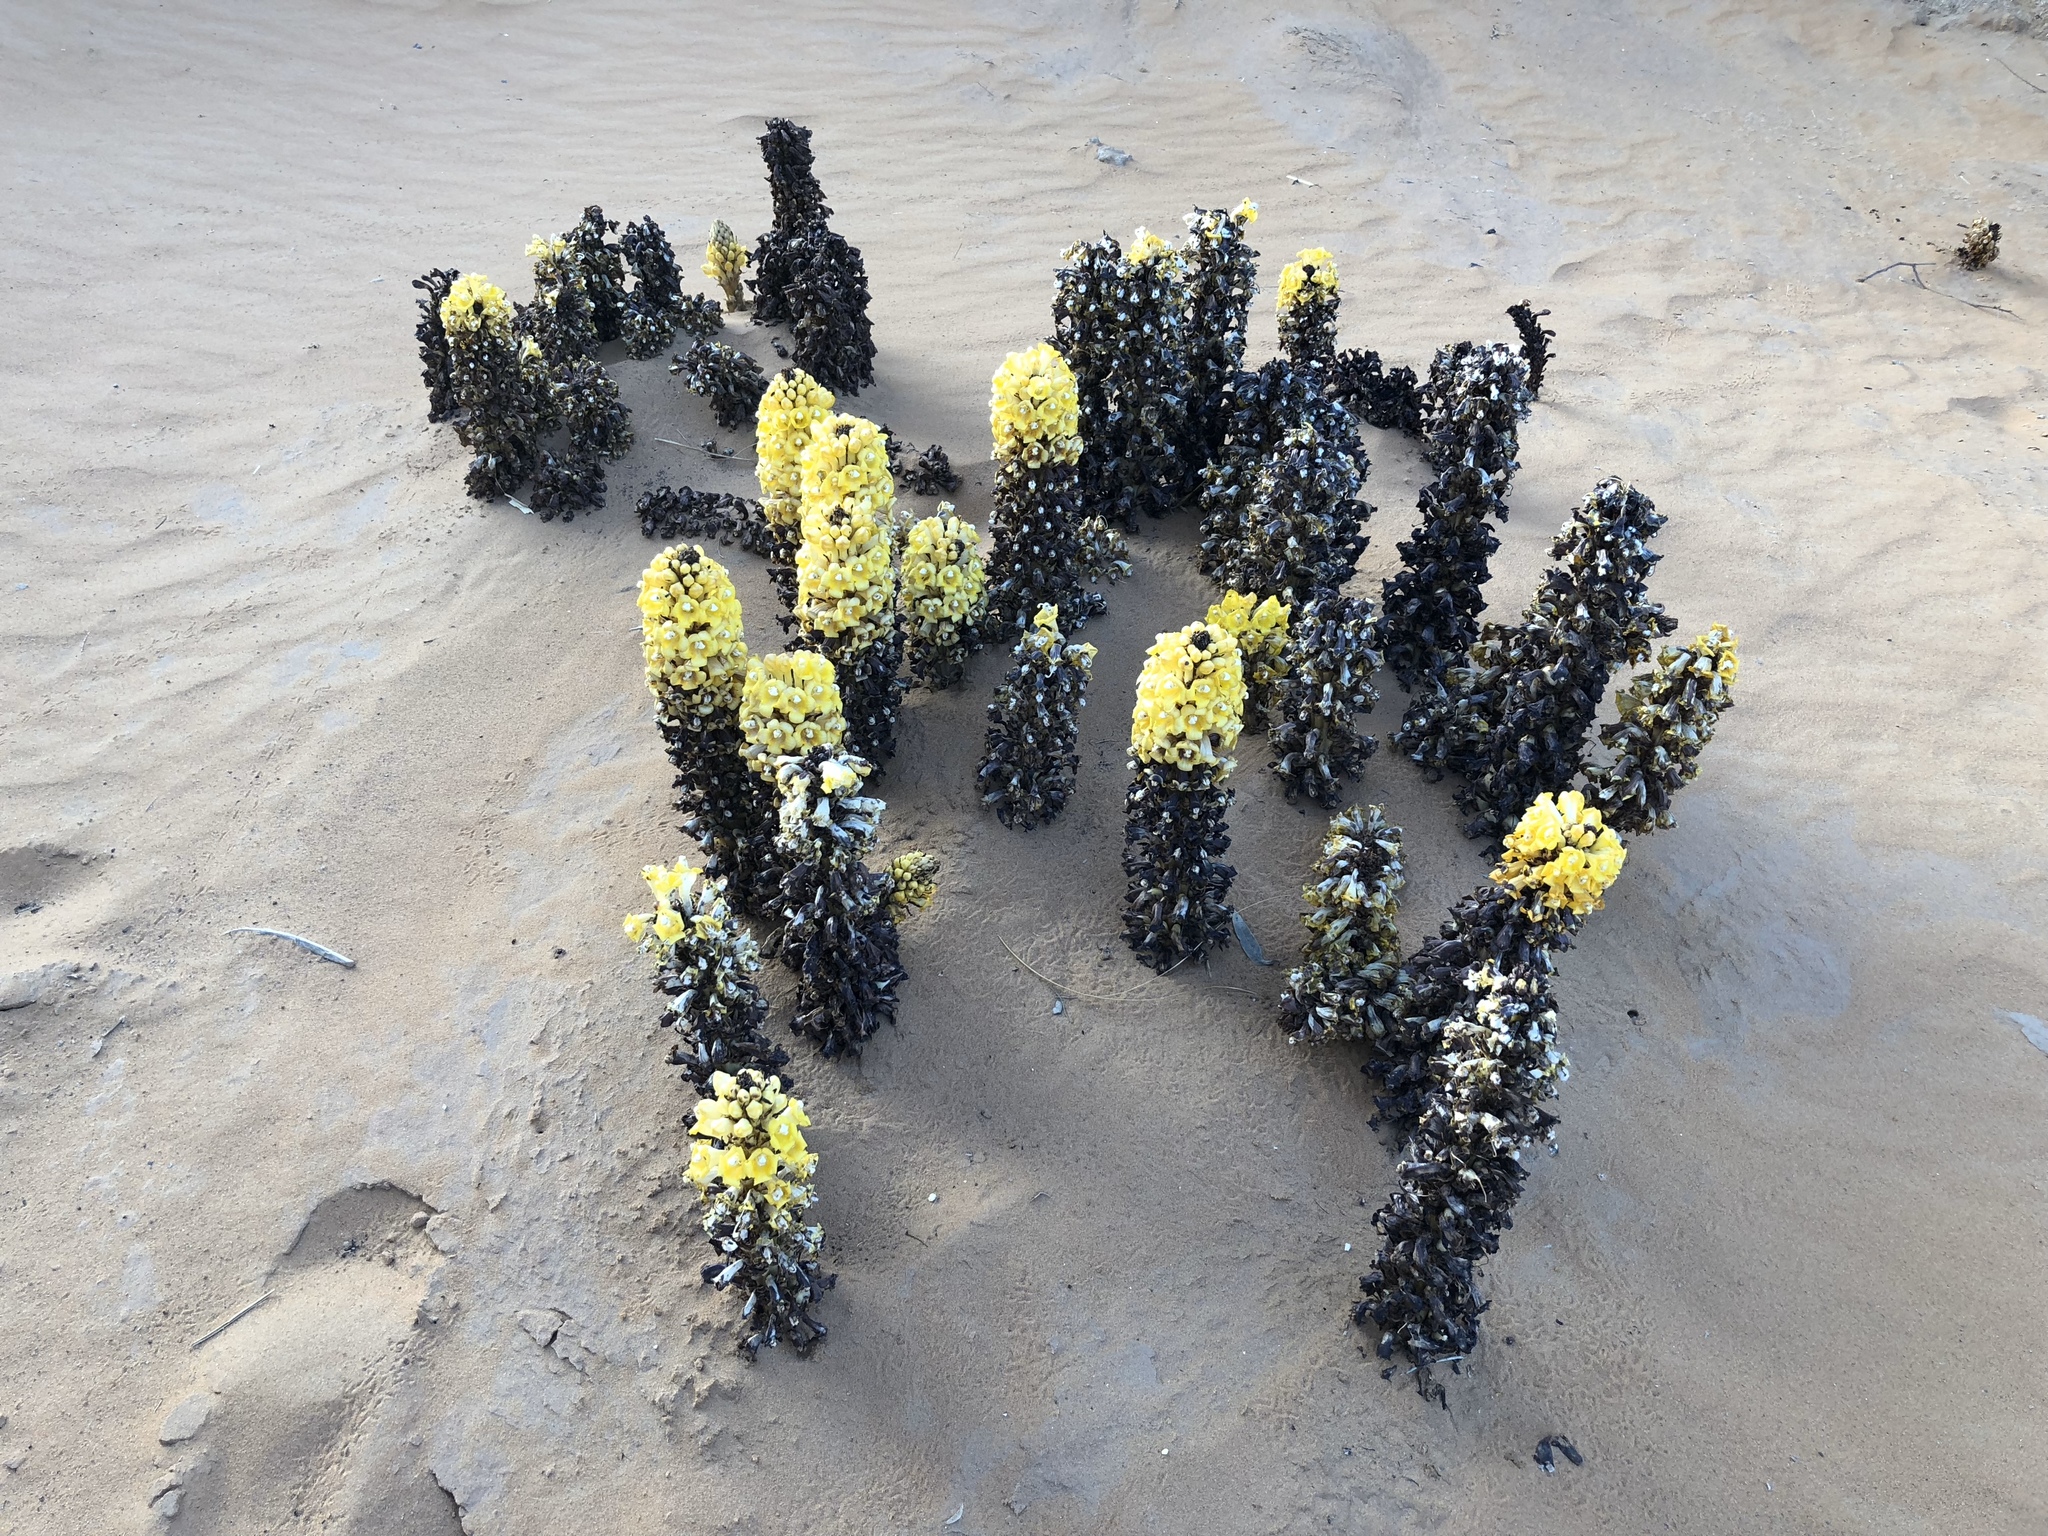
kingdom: Plantae
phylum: Tracheophyta
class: Magnoliopsida
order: Lamiales
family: Orobanchaceae
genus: Cistanche
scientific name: Cistanche
